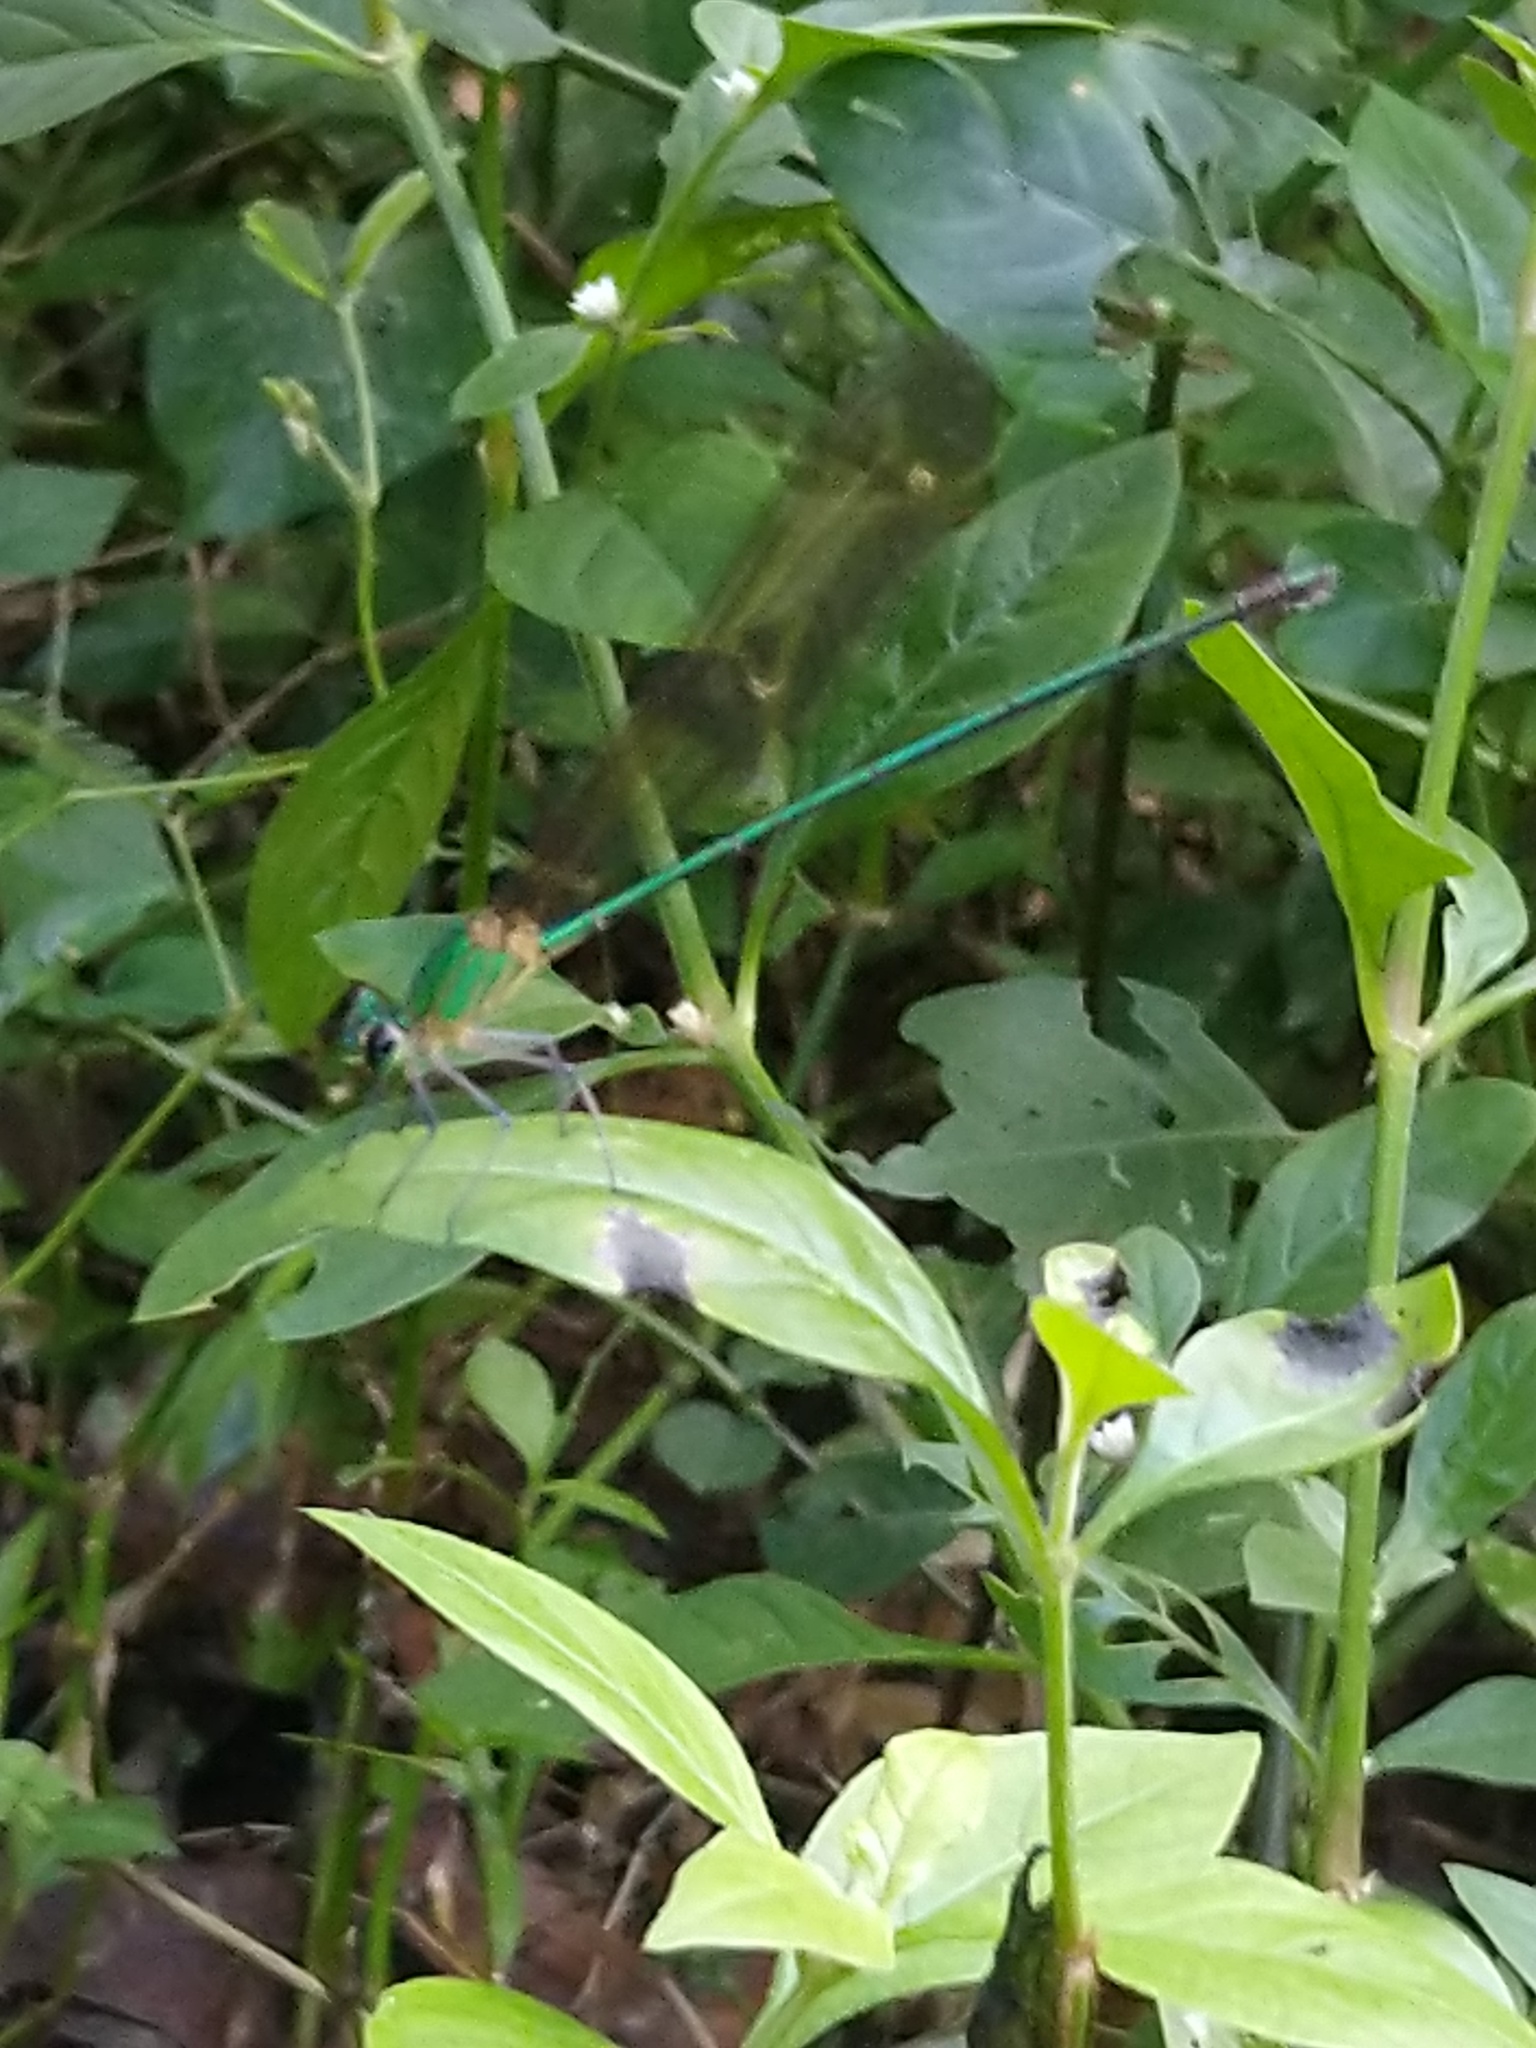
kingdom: Animalia
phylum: Arthropoda
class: Insecta
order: Odonata
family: Calopterygidae
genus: Vestalis
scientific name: Vestalis apicalis
